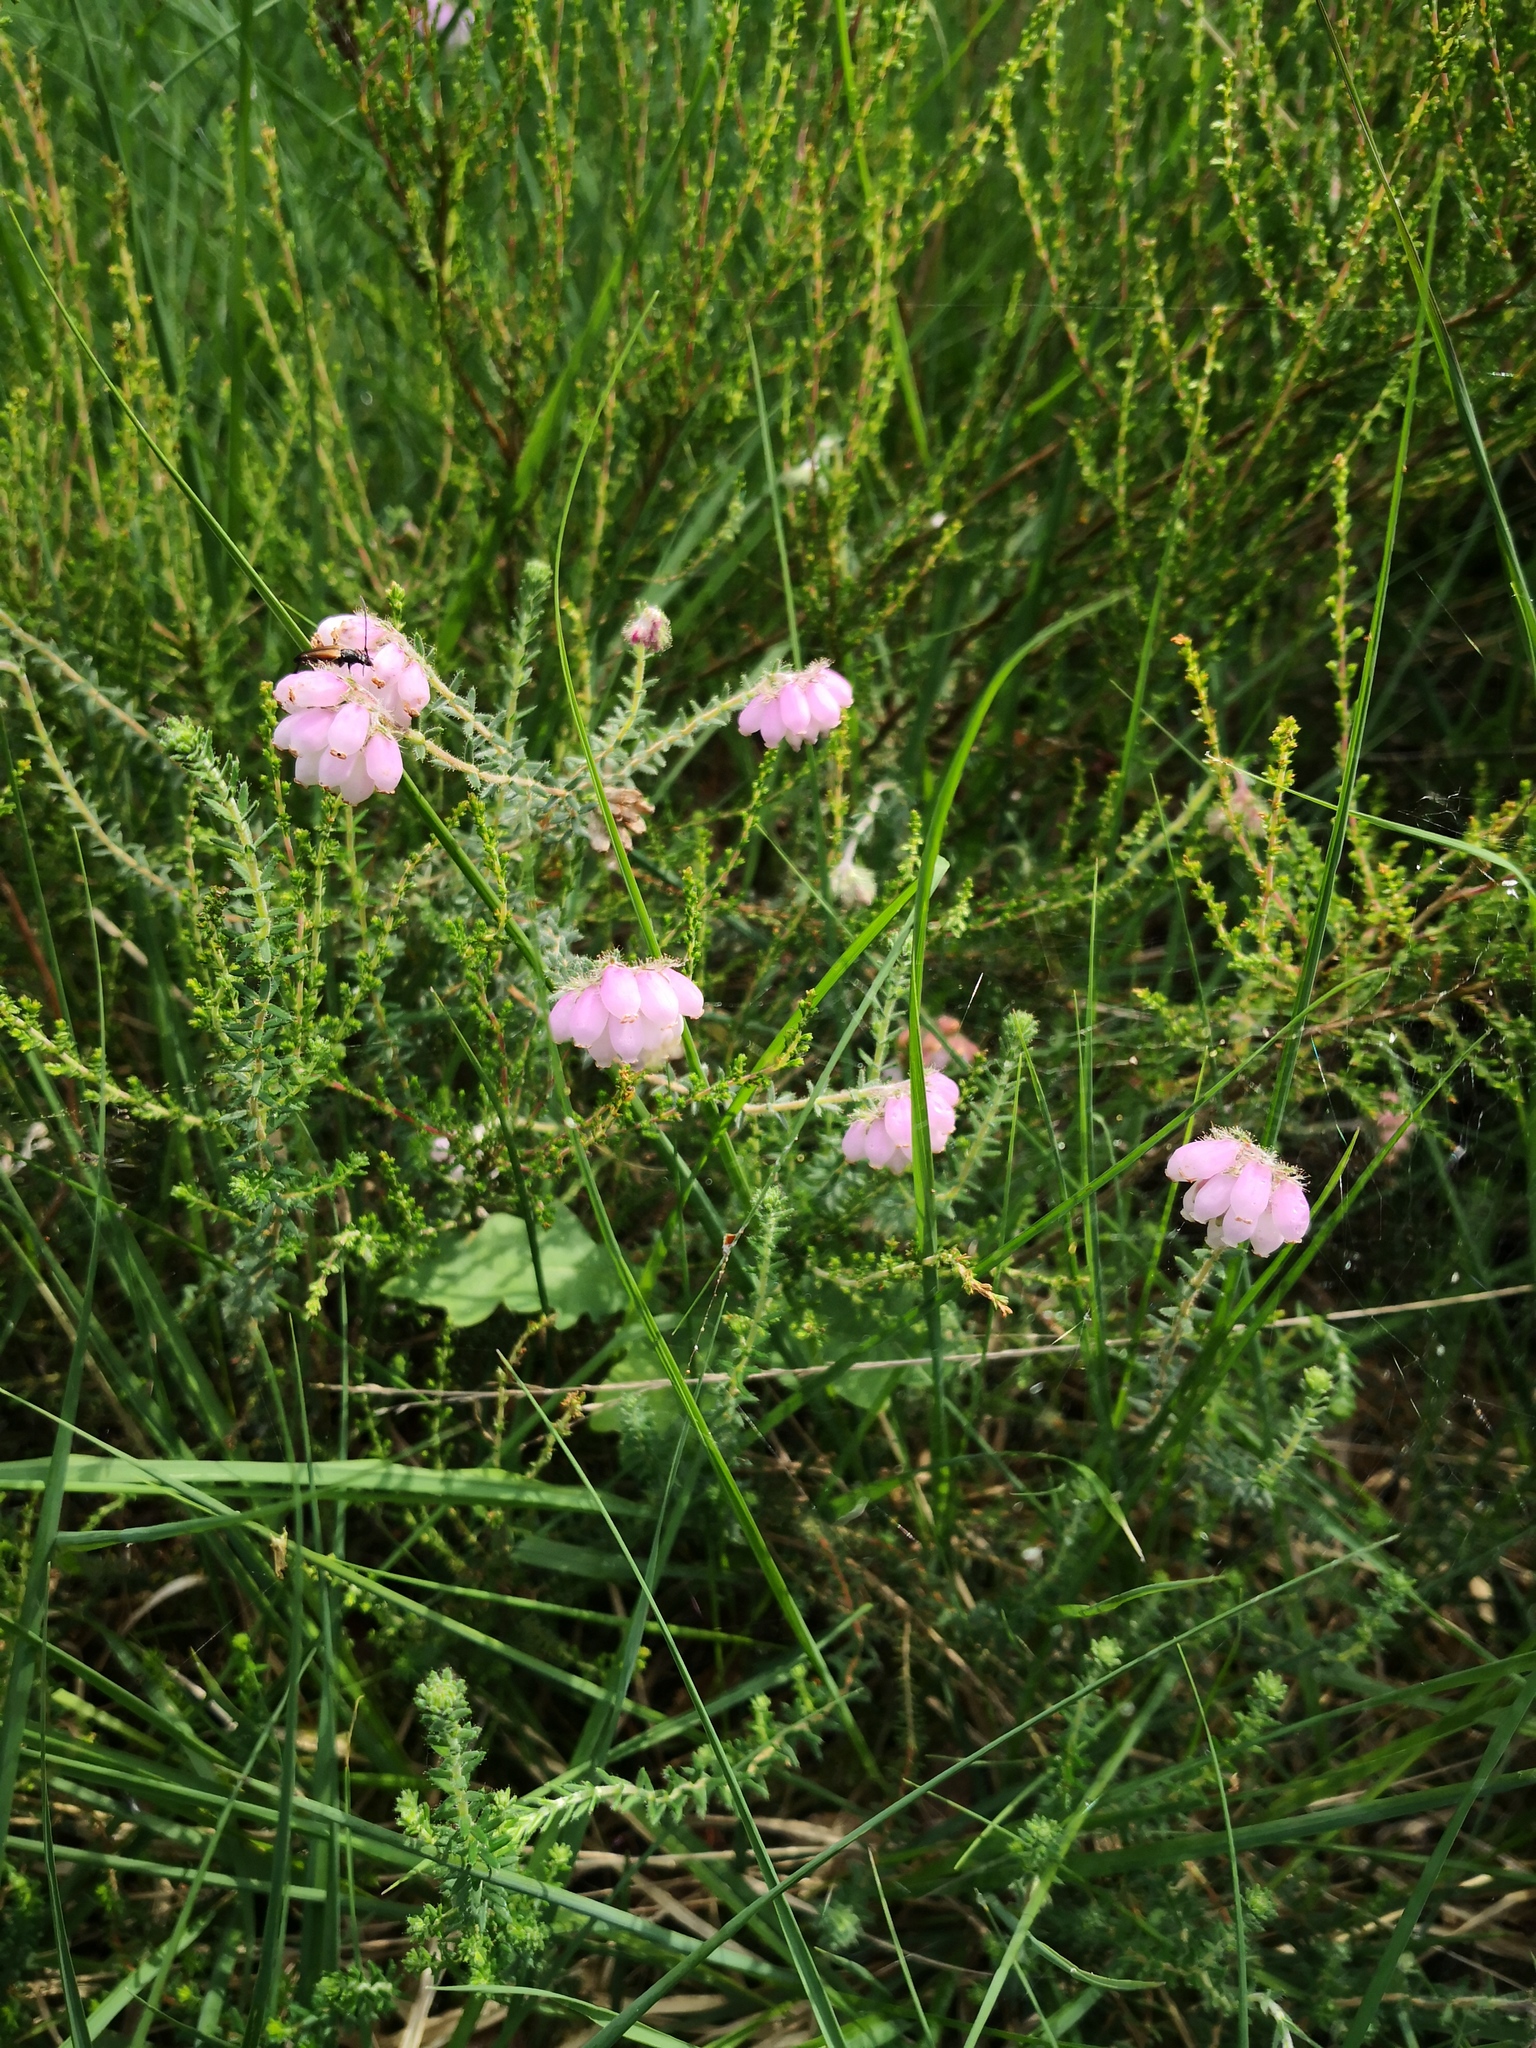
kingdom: Plantae
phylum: Tracheophyta
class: Magnoliopsida
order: Ericales
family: Ericaceae
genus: Erica
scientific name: Erica tetralix
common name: Cross-leaved heath
